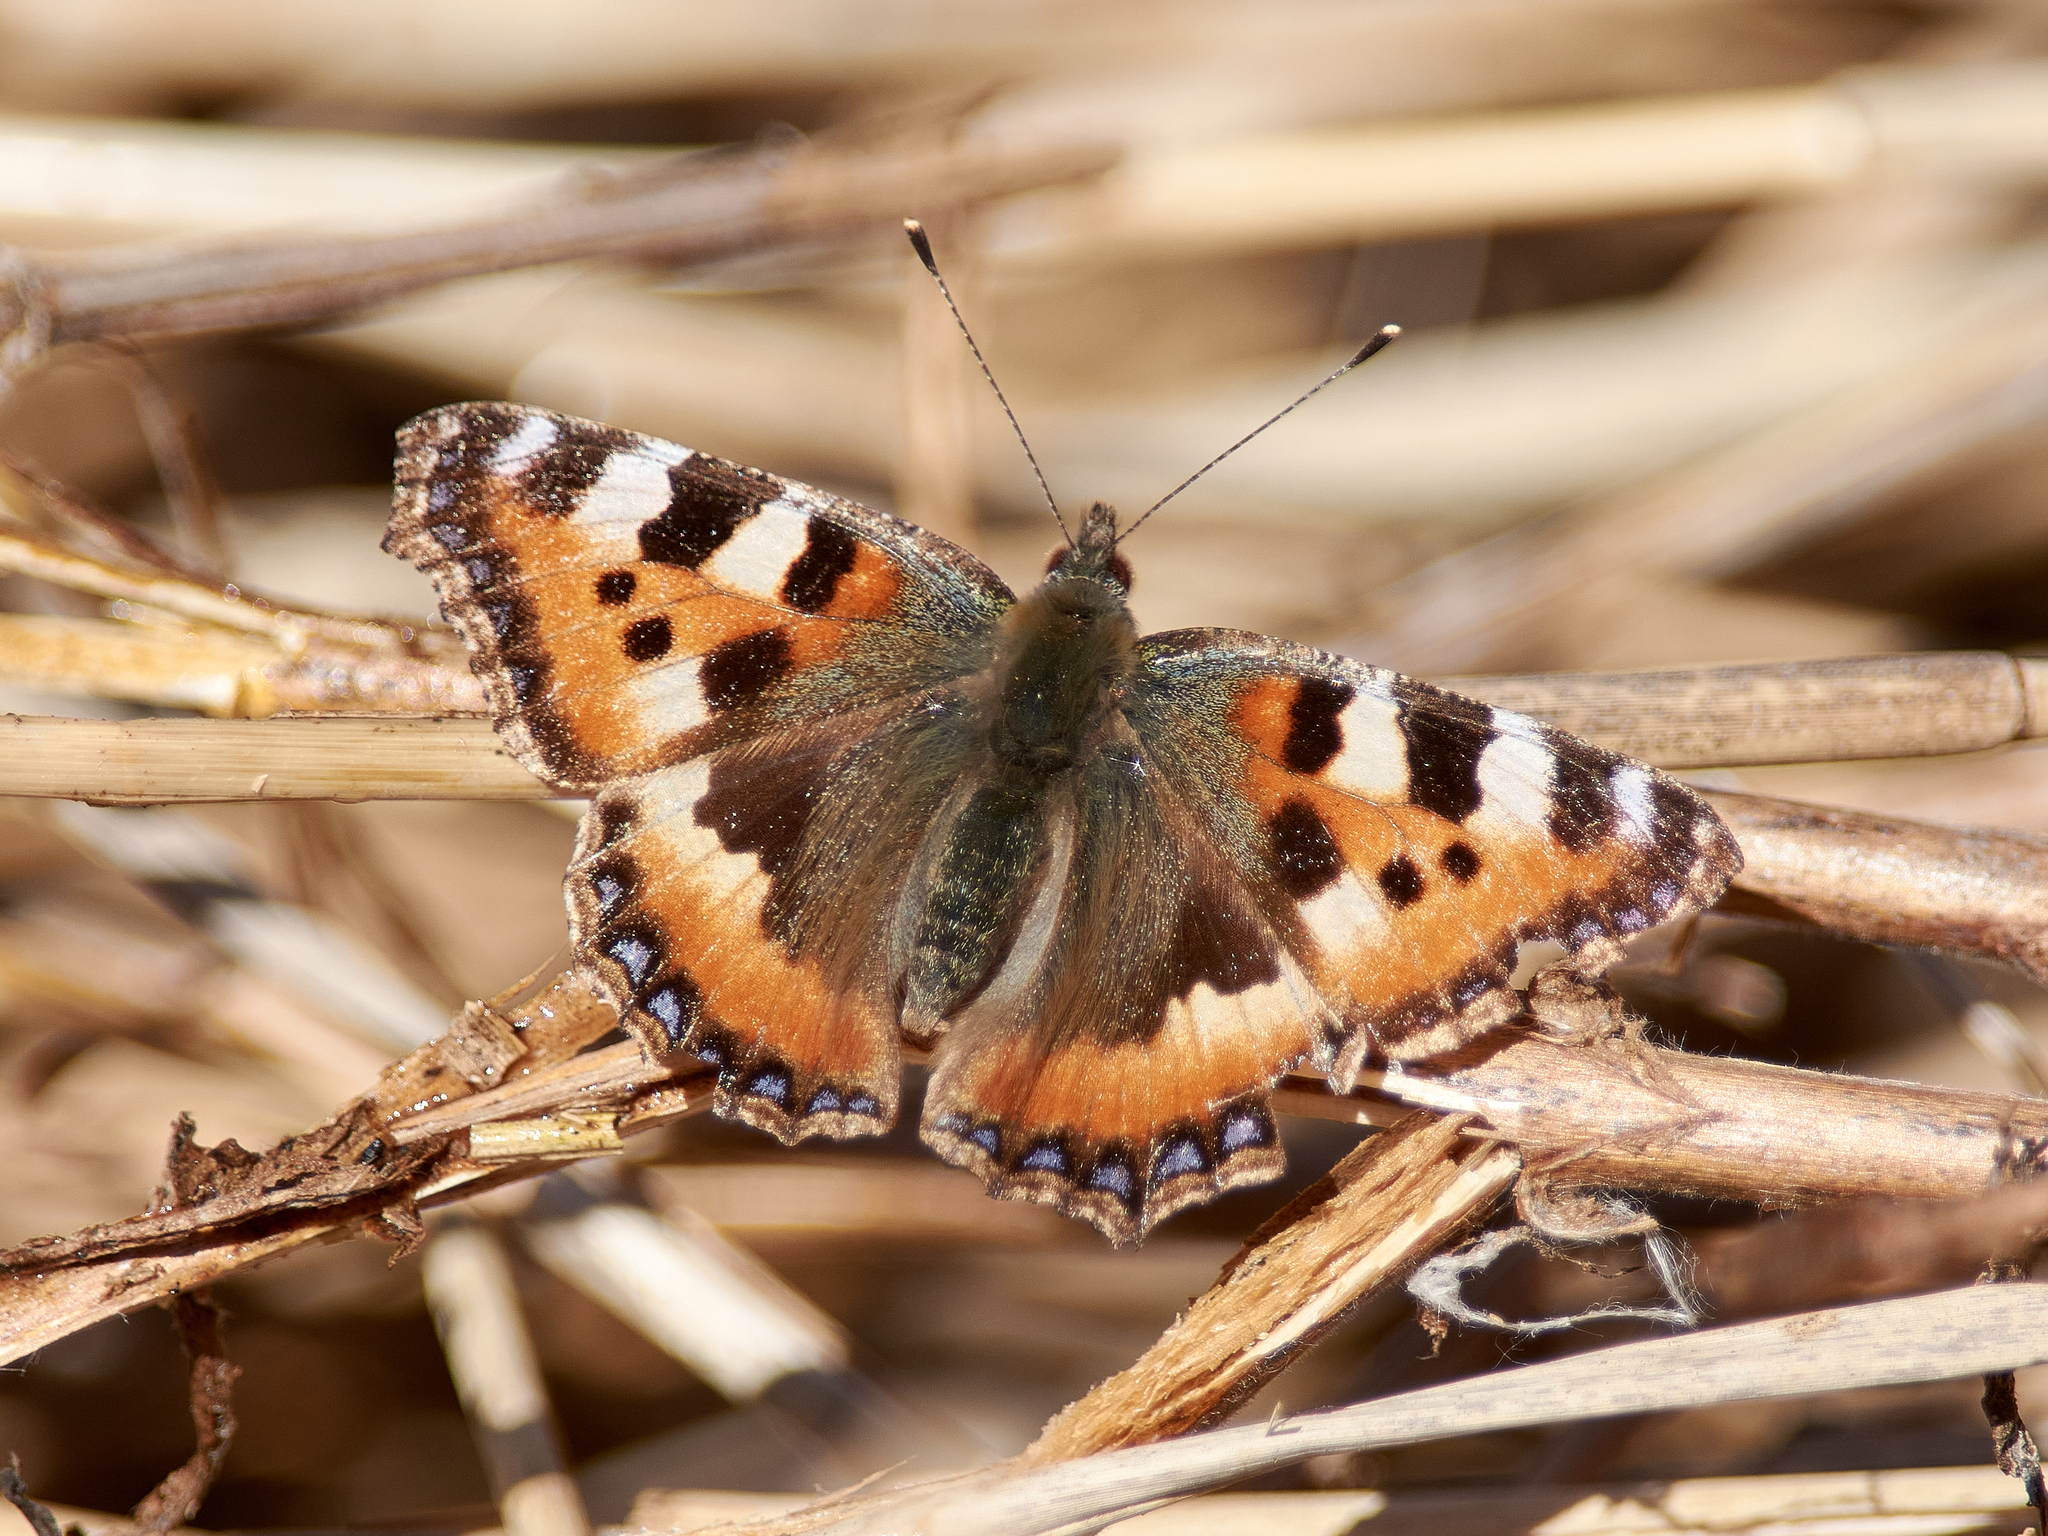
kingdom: Animalia
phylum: Arthropoda
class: Insecta
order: Lepidoptera
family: Nymphalidae
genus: Aglais
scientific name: Aglais urticae
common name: Small tortoiseshell
